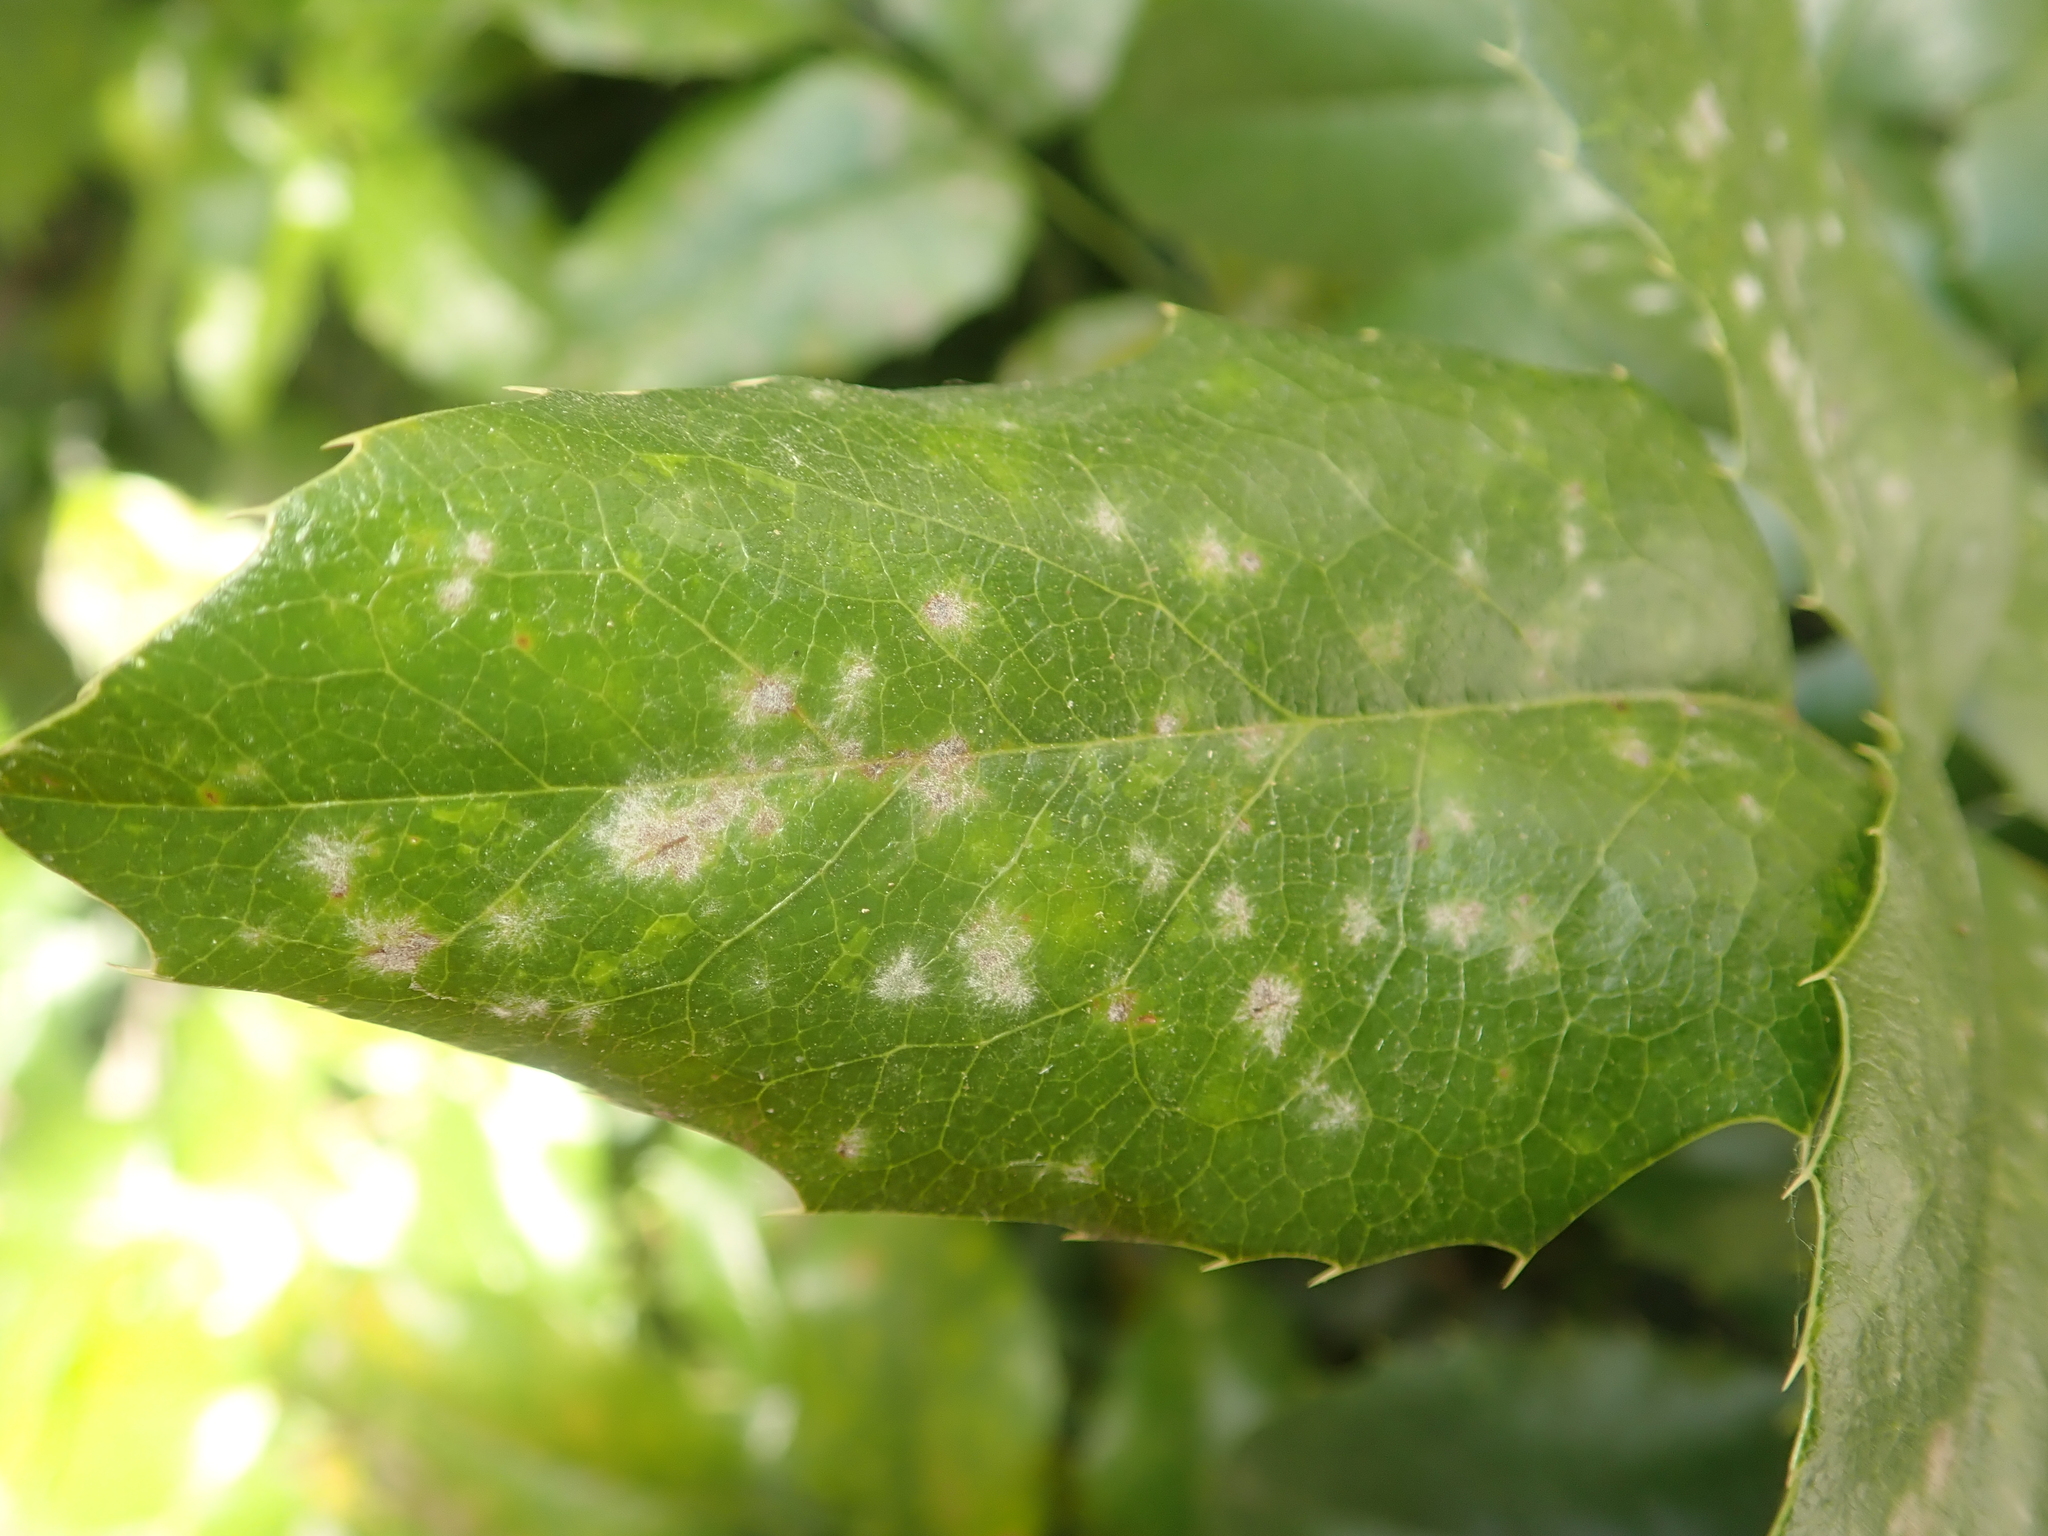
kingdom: Fungi
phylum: Ascomycota
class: Leotiomycetes
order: Helotiales
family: Erysiphaceae
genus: Erysiphe
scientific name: Erysiphe berberidis
